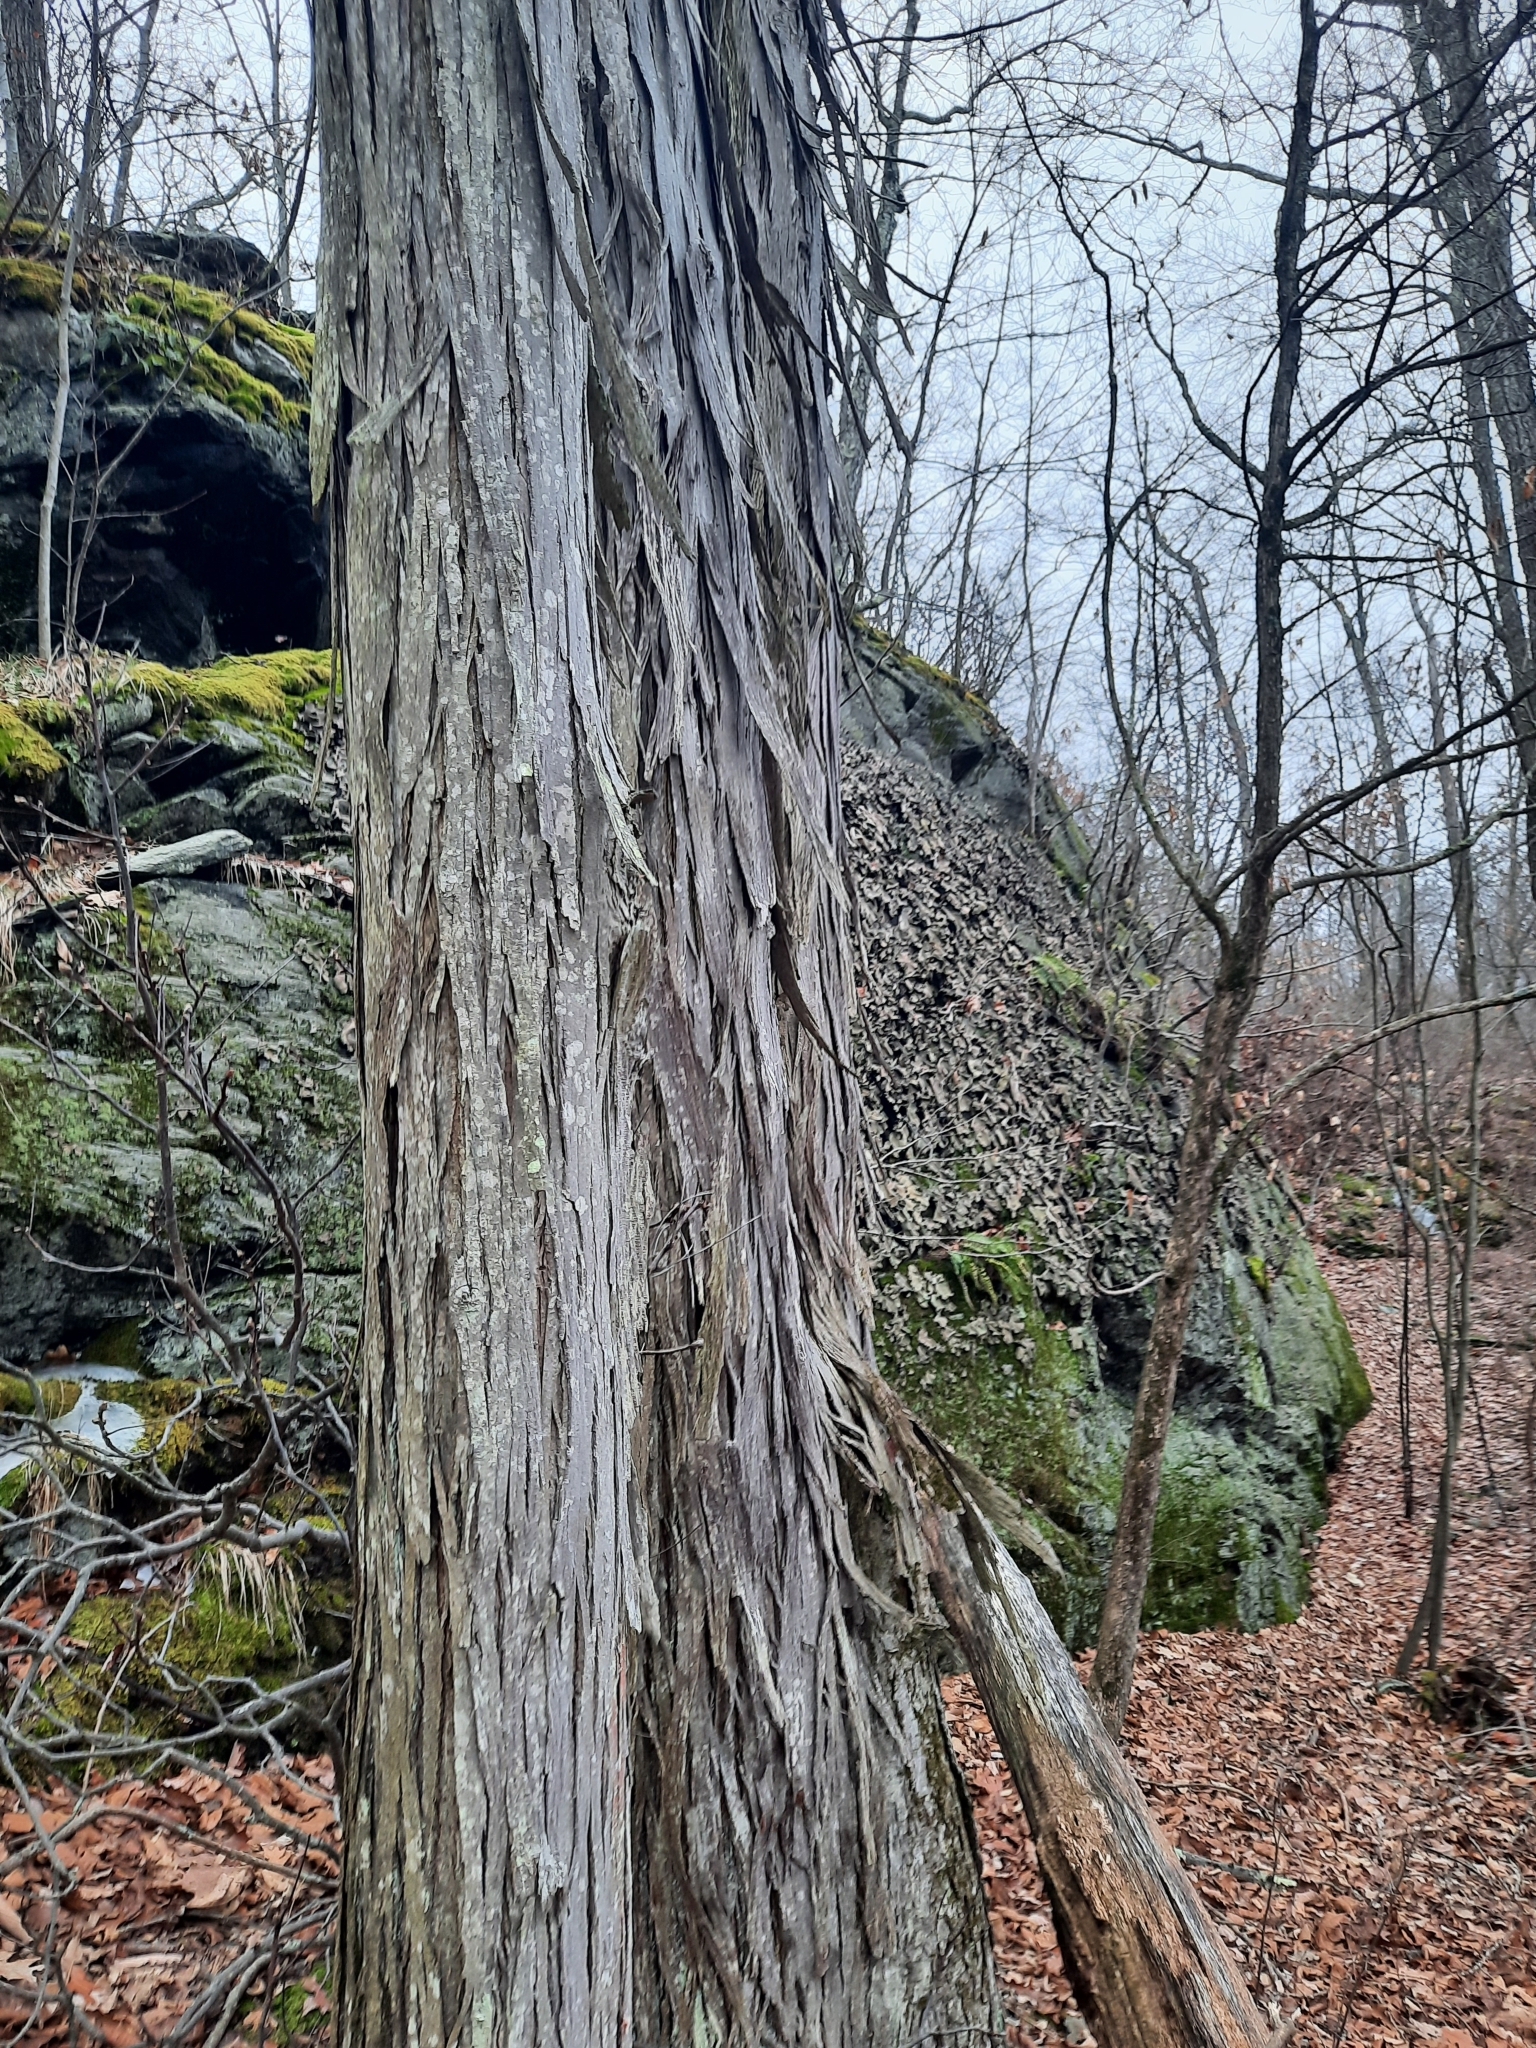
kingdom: Plantae
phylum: Tracheophyta
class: Magnoliopsida
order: Fagales
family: Juglandaceae
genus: Carya
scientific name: Carya ovata
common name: Shagbark hickory
